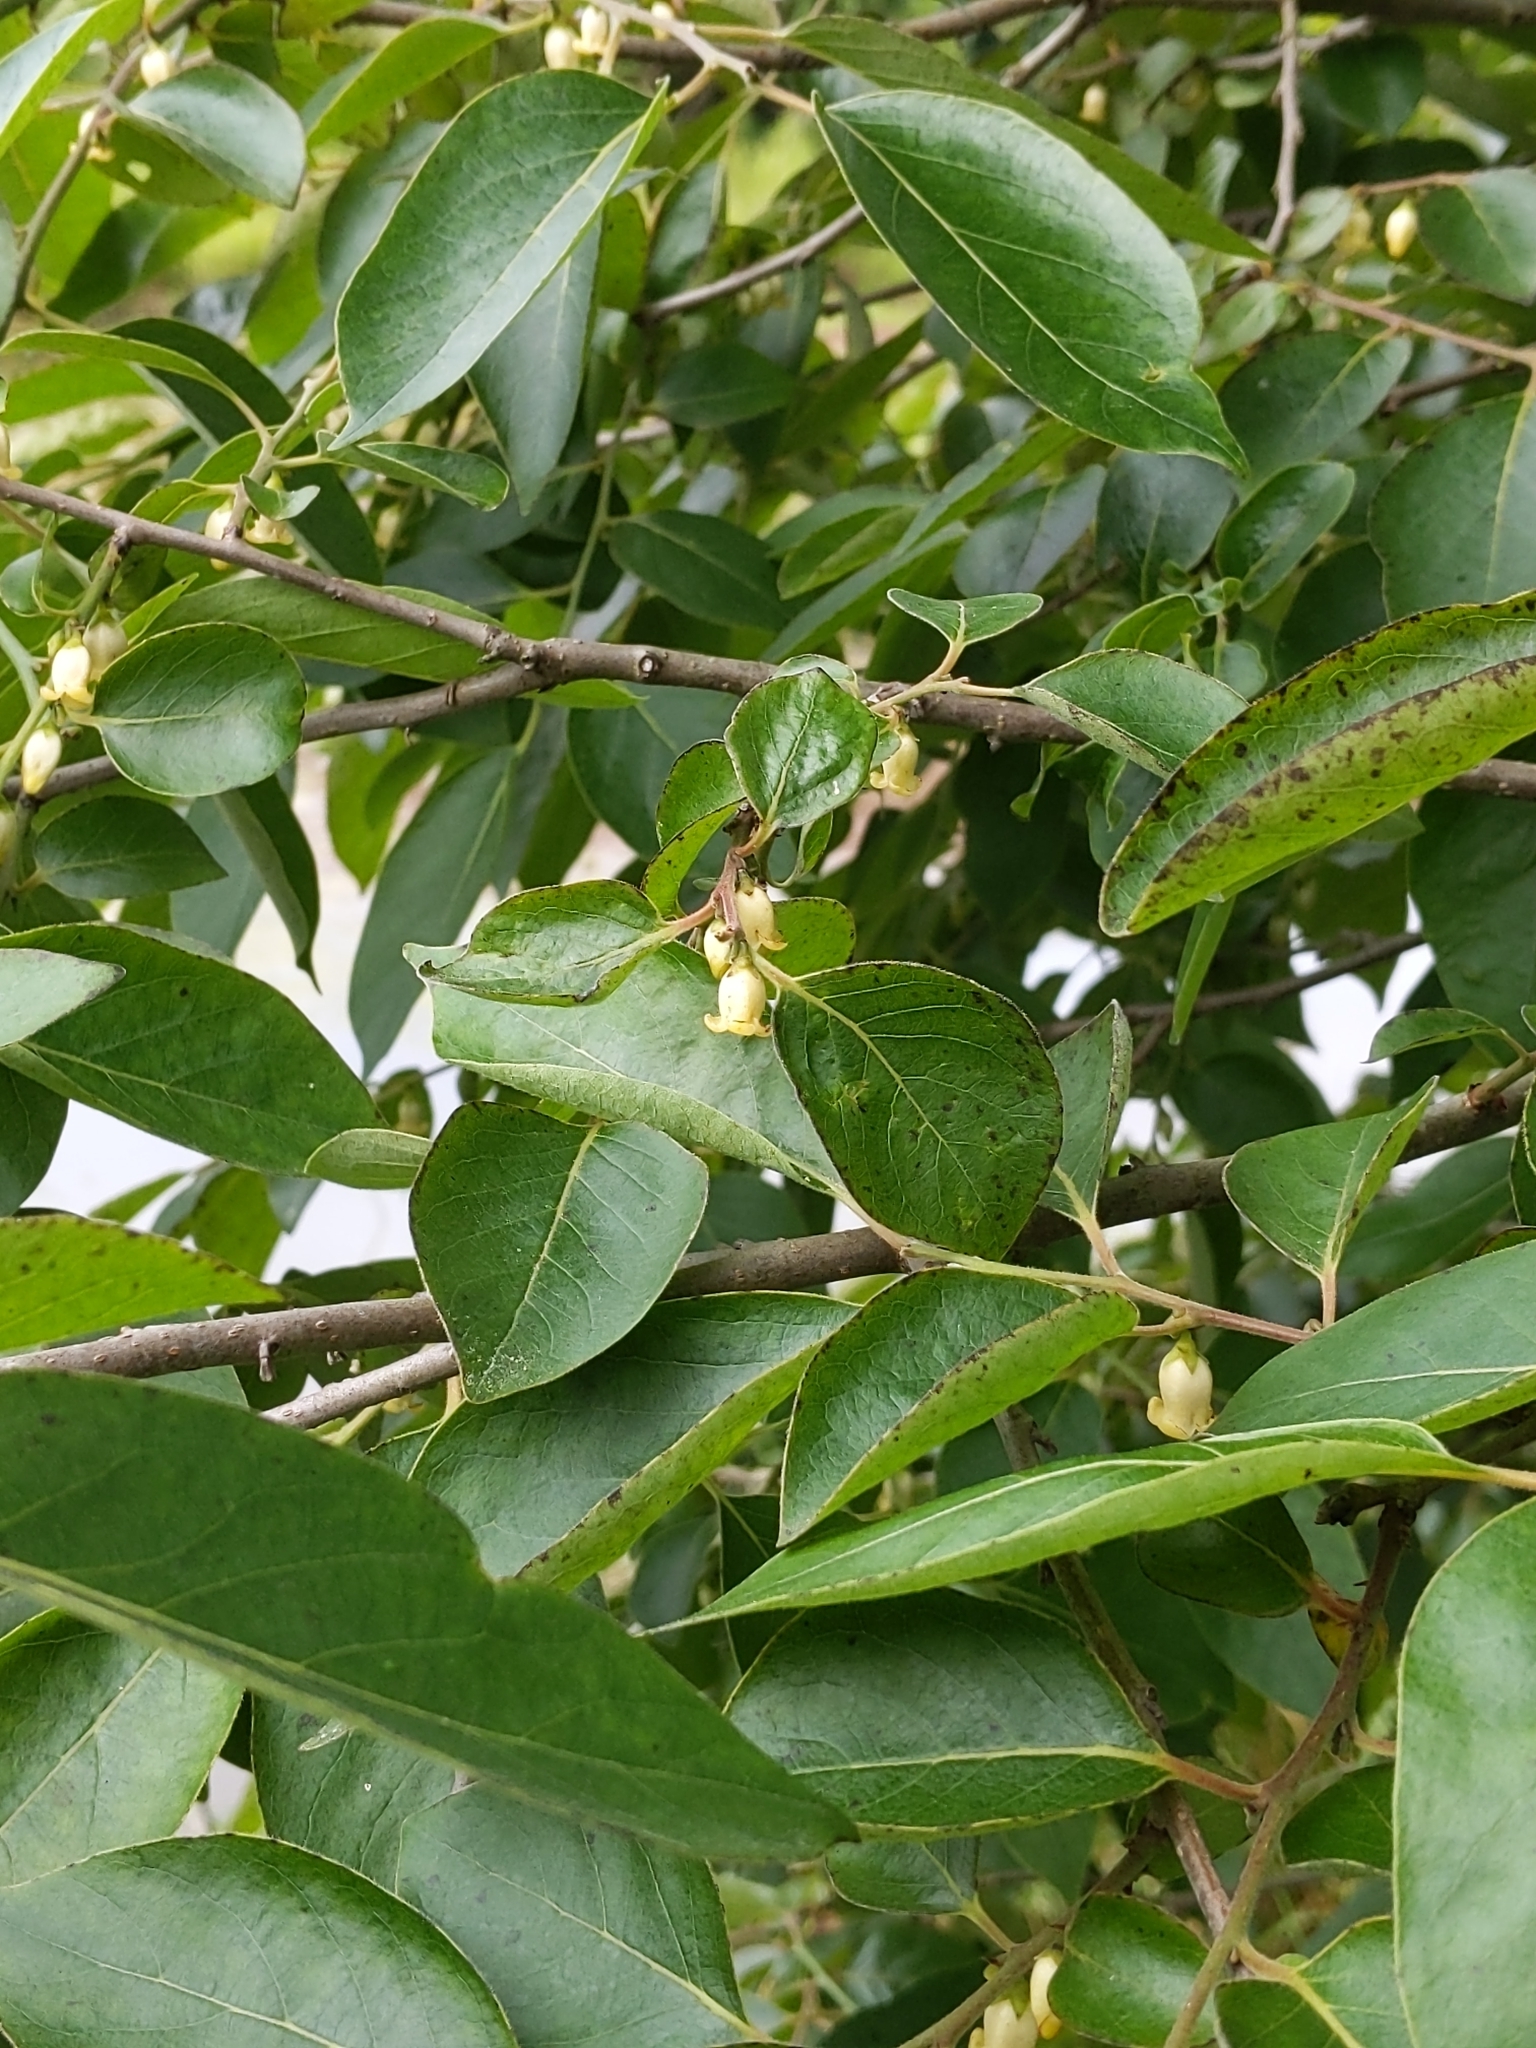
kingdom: Plantae
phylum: Tracheophyta
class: Magnoliopsida
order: Ericales
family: Ebenaceae
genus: Diospyros
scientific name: Diospyros virginiana
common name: Persimmon
